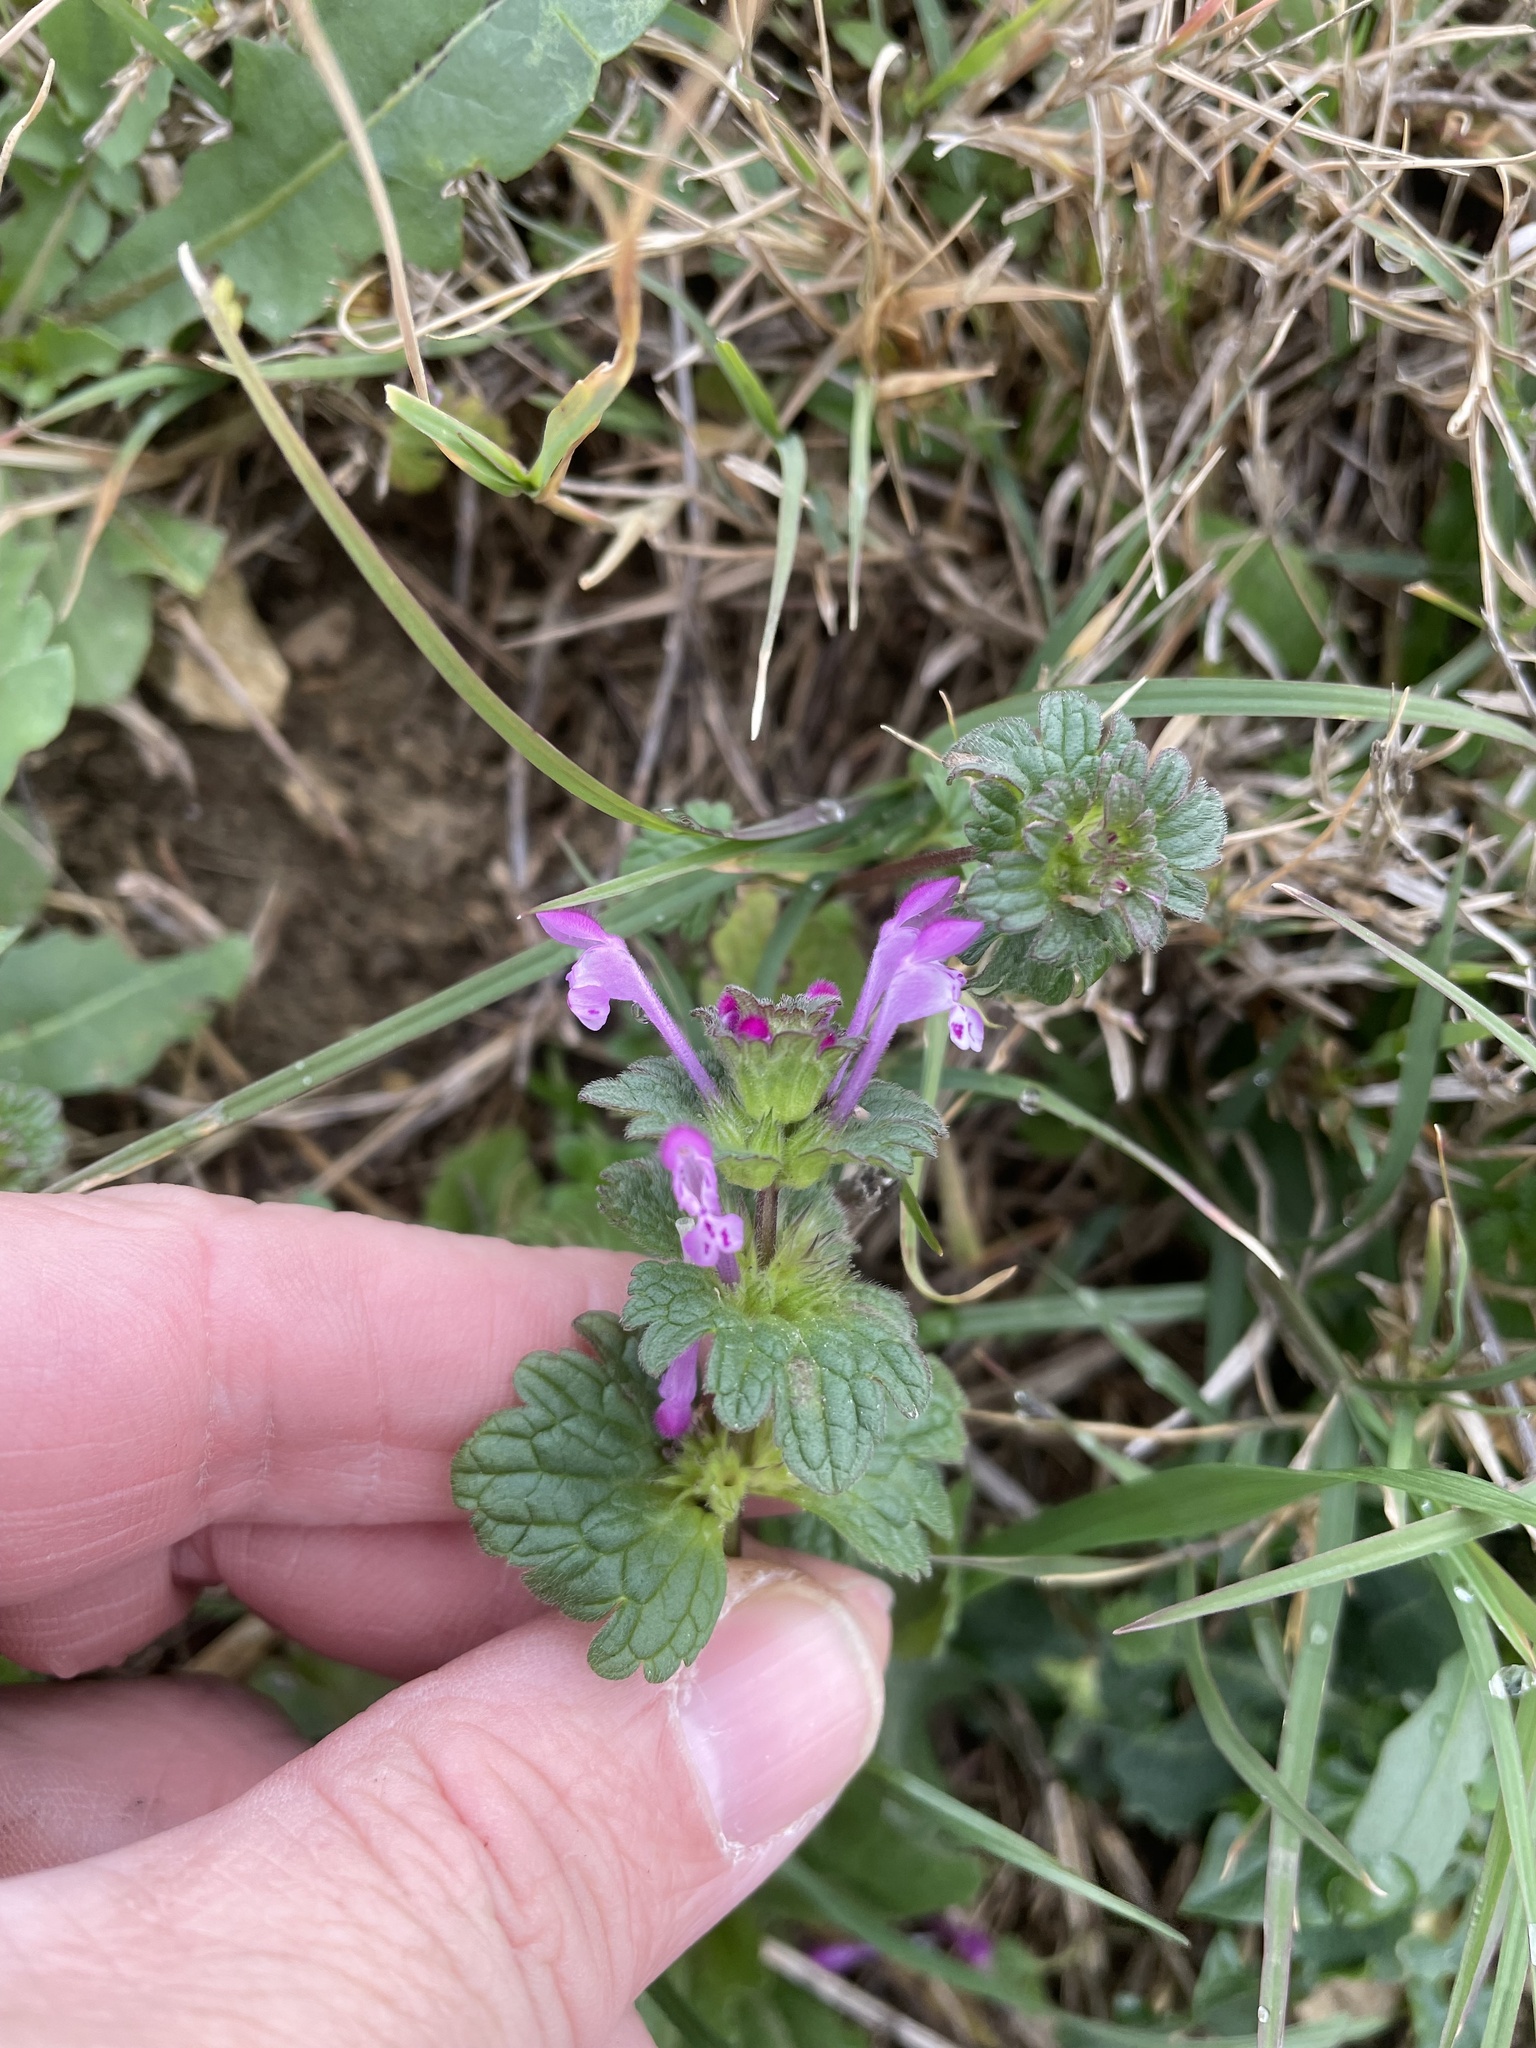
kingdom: Plantae
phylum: Tracheophyta
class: Magnoliopsida
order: Lamiales
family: Lamiaceae
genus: Lamium
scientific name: Lamium amplexicaule
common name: Henbit dead-nettle
